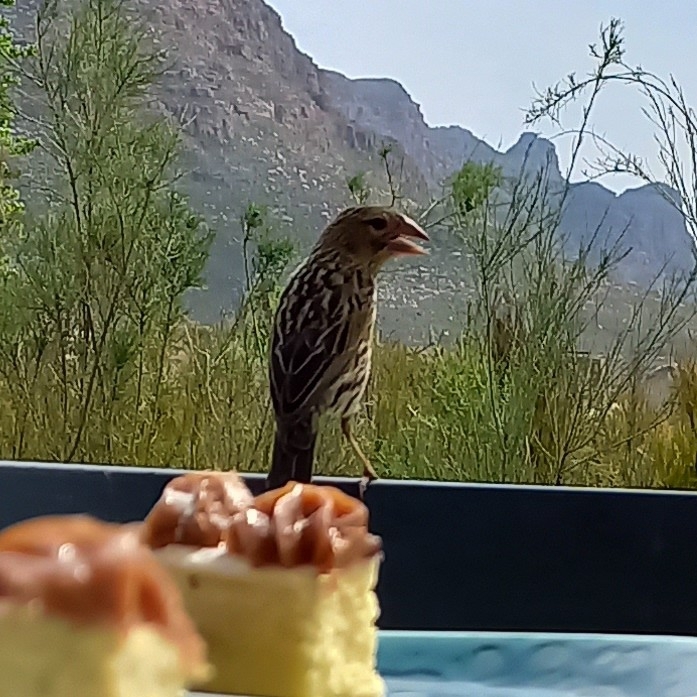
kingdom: Animalia
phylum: Chordata
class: Aves
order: Passeriformes
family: Ploceidae
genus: Euplectes
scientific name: Euplectes capensis
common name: Yellow bishop
